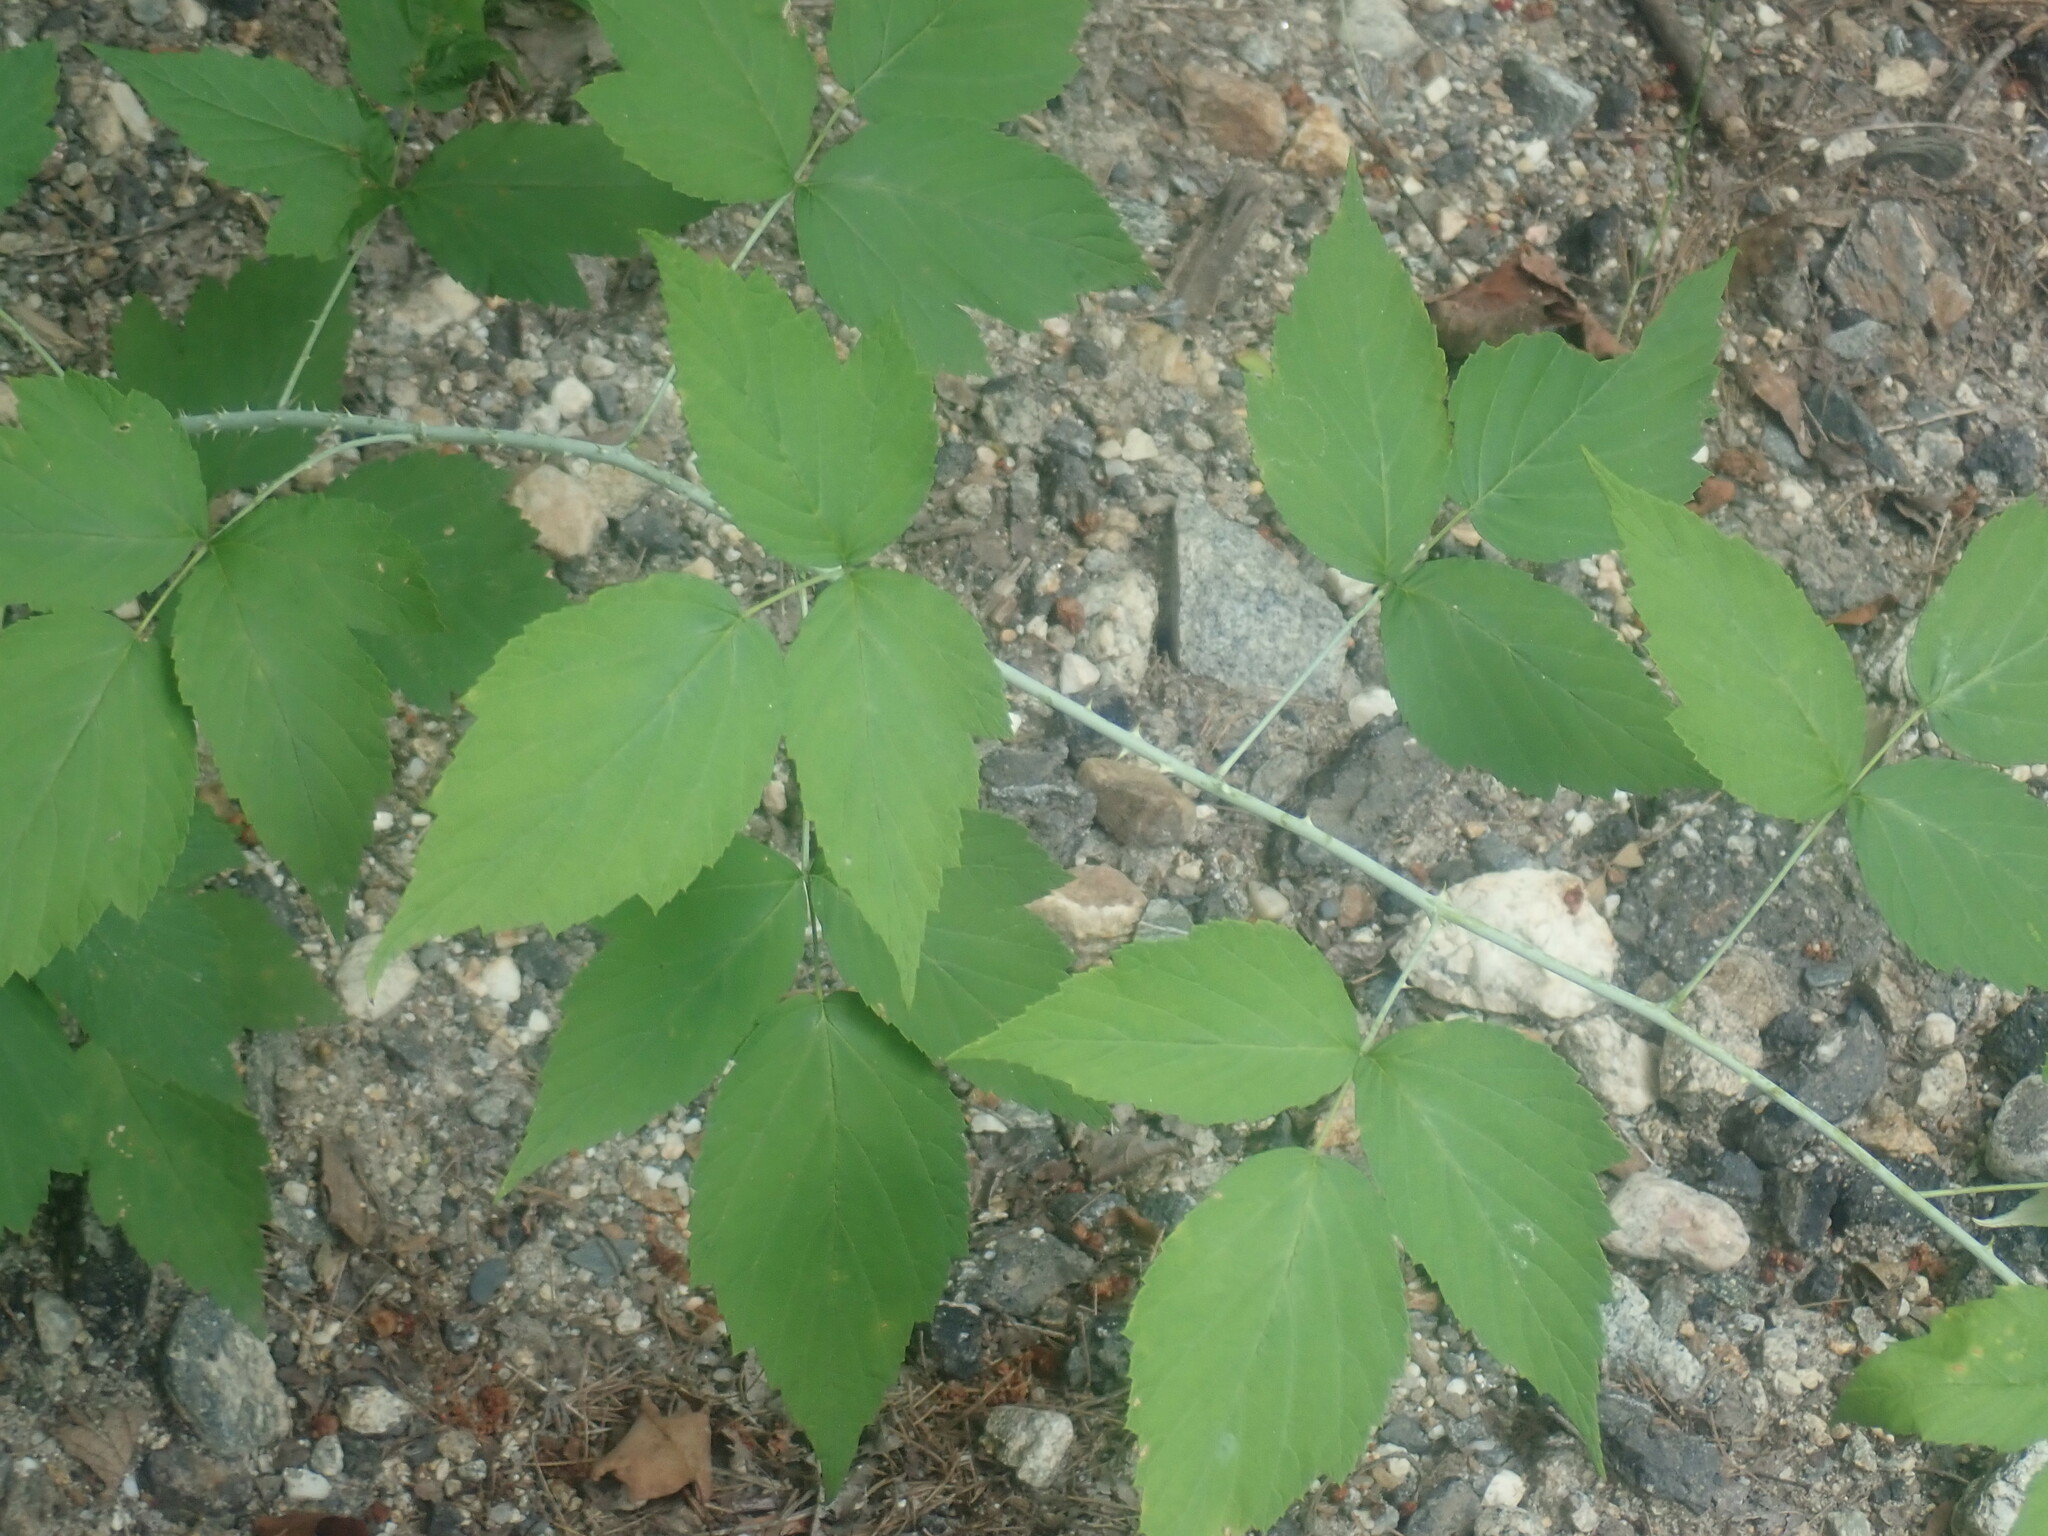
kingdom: Plantae
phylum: Tracheophyta
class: Magnoliopsida
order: Rosales
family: Rosaceae
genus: Rubus
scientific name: Rubus occidentalis
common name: Black raspberry
